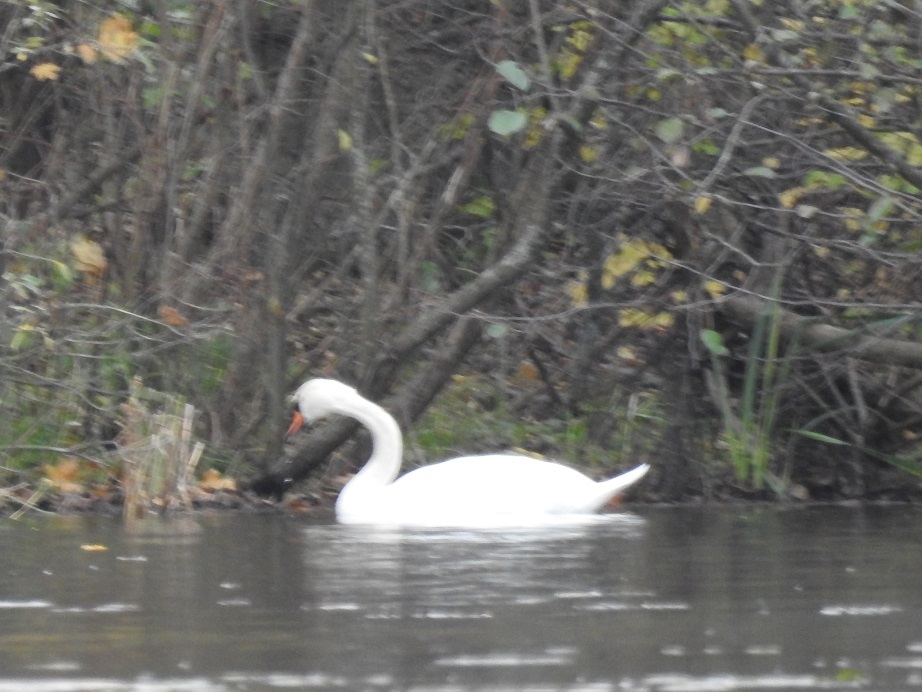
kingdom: Animalia
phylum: Chordata
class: Aves
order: Anseriformes
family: Anatidae
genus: Cygnus
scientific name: Cygnus olor
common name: Mute swan
